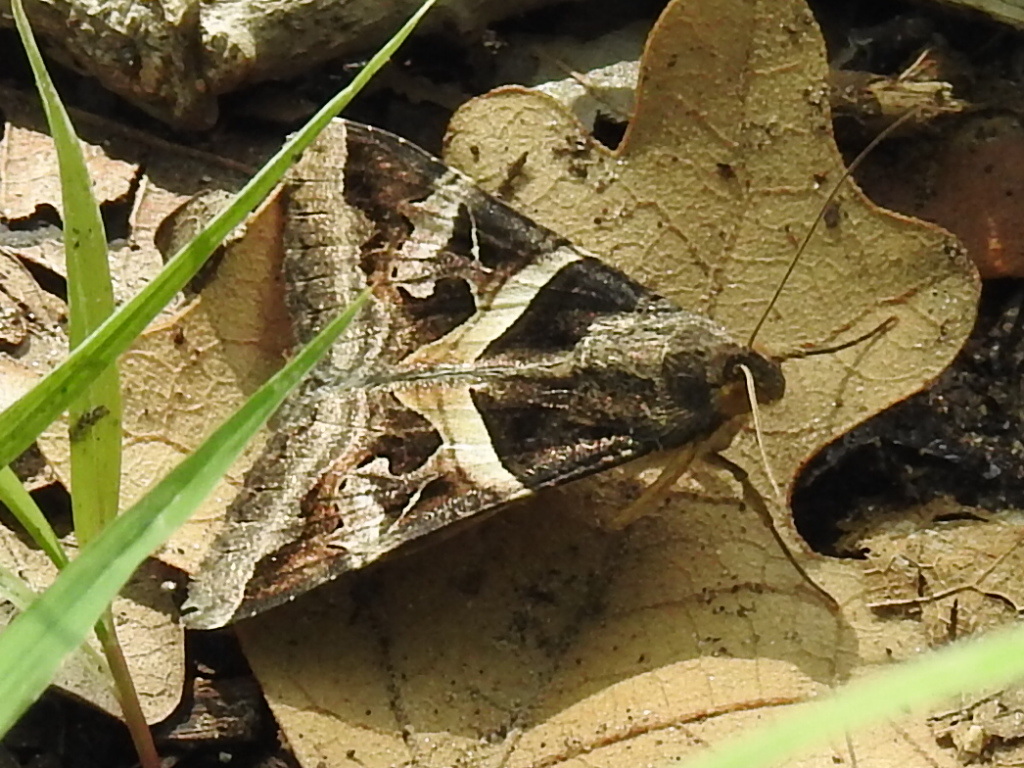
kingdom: Animalia
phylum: Arthropoda
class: Insecta
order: Lepidoptera
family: Erebidae
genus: Melipotis
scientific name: Melipotis indomita
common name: Moth
